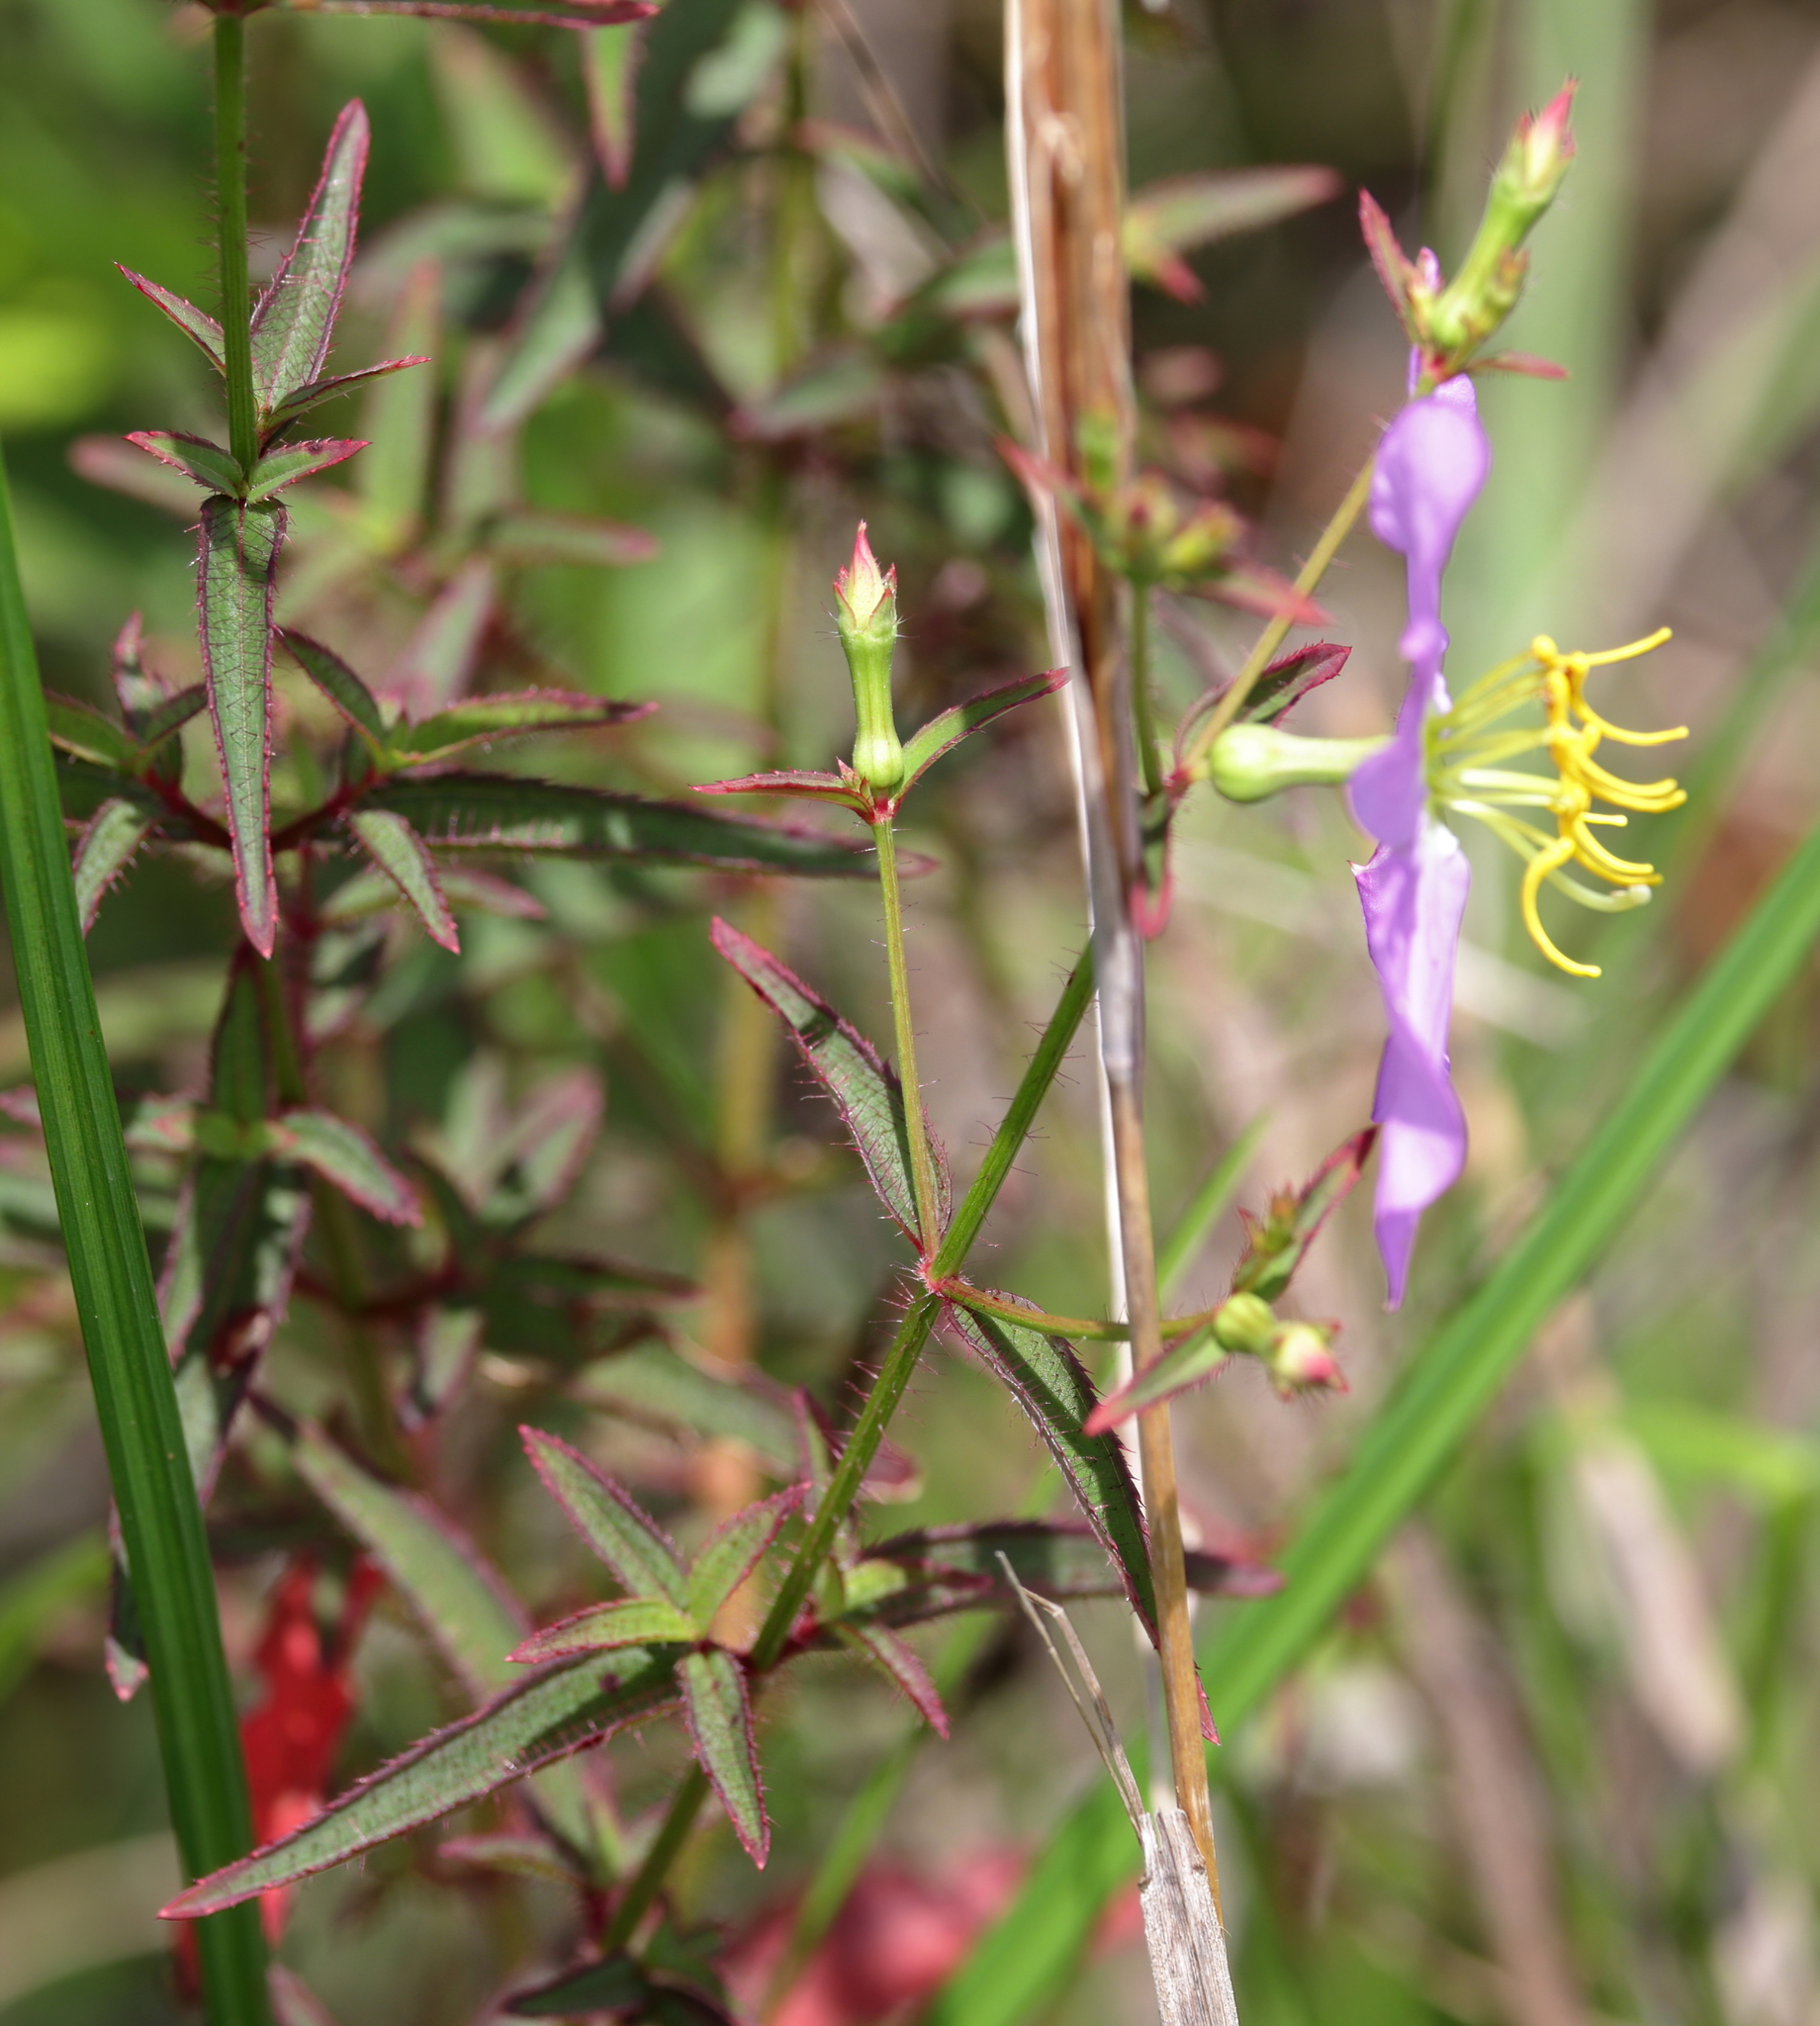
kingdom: Plantae
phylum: Tracheophyta
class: Magnoliopsida
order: Myrtales
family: Melastomataceae
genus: Rhexia
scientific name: Rhexia nashii
